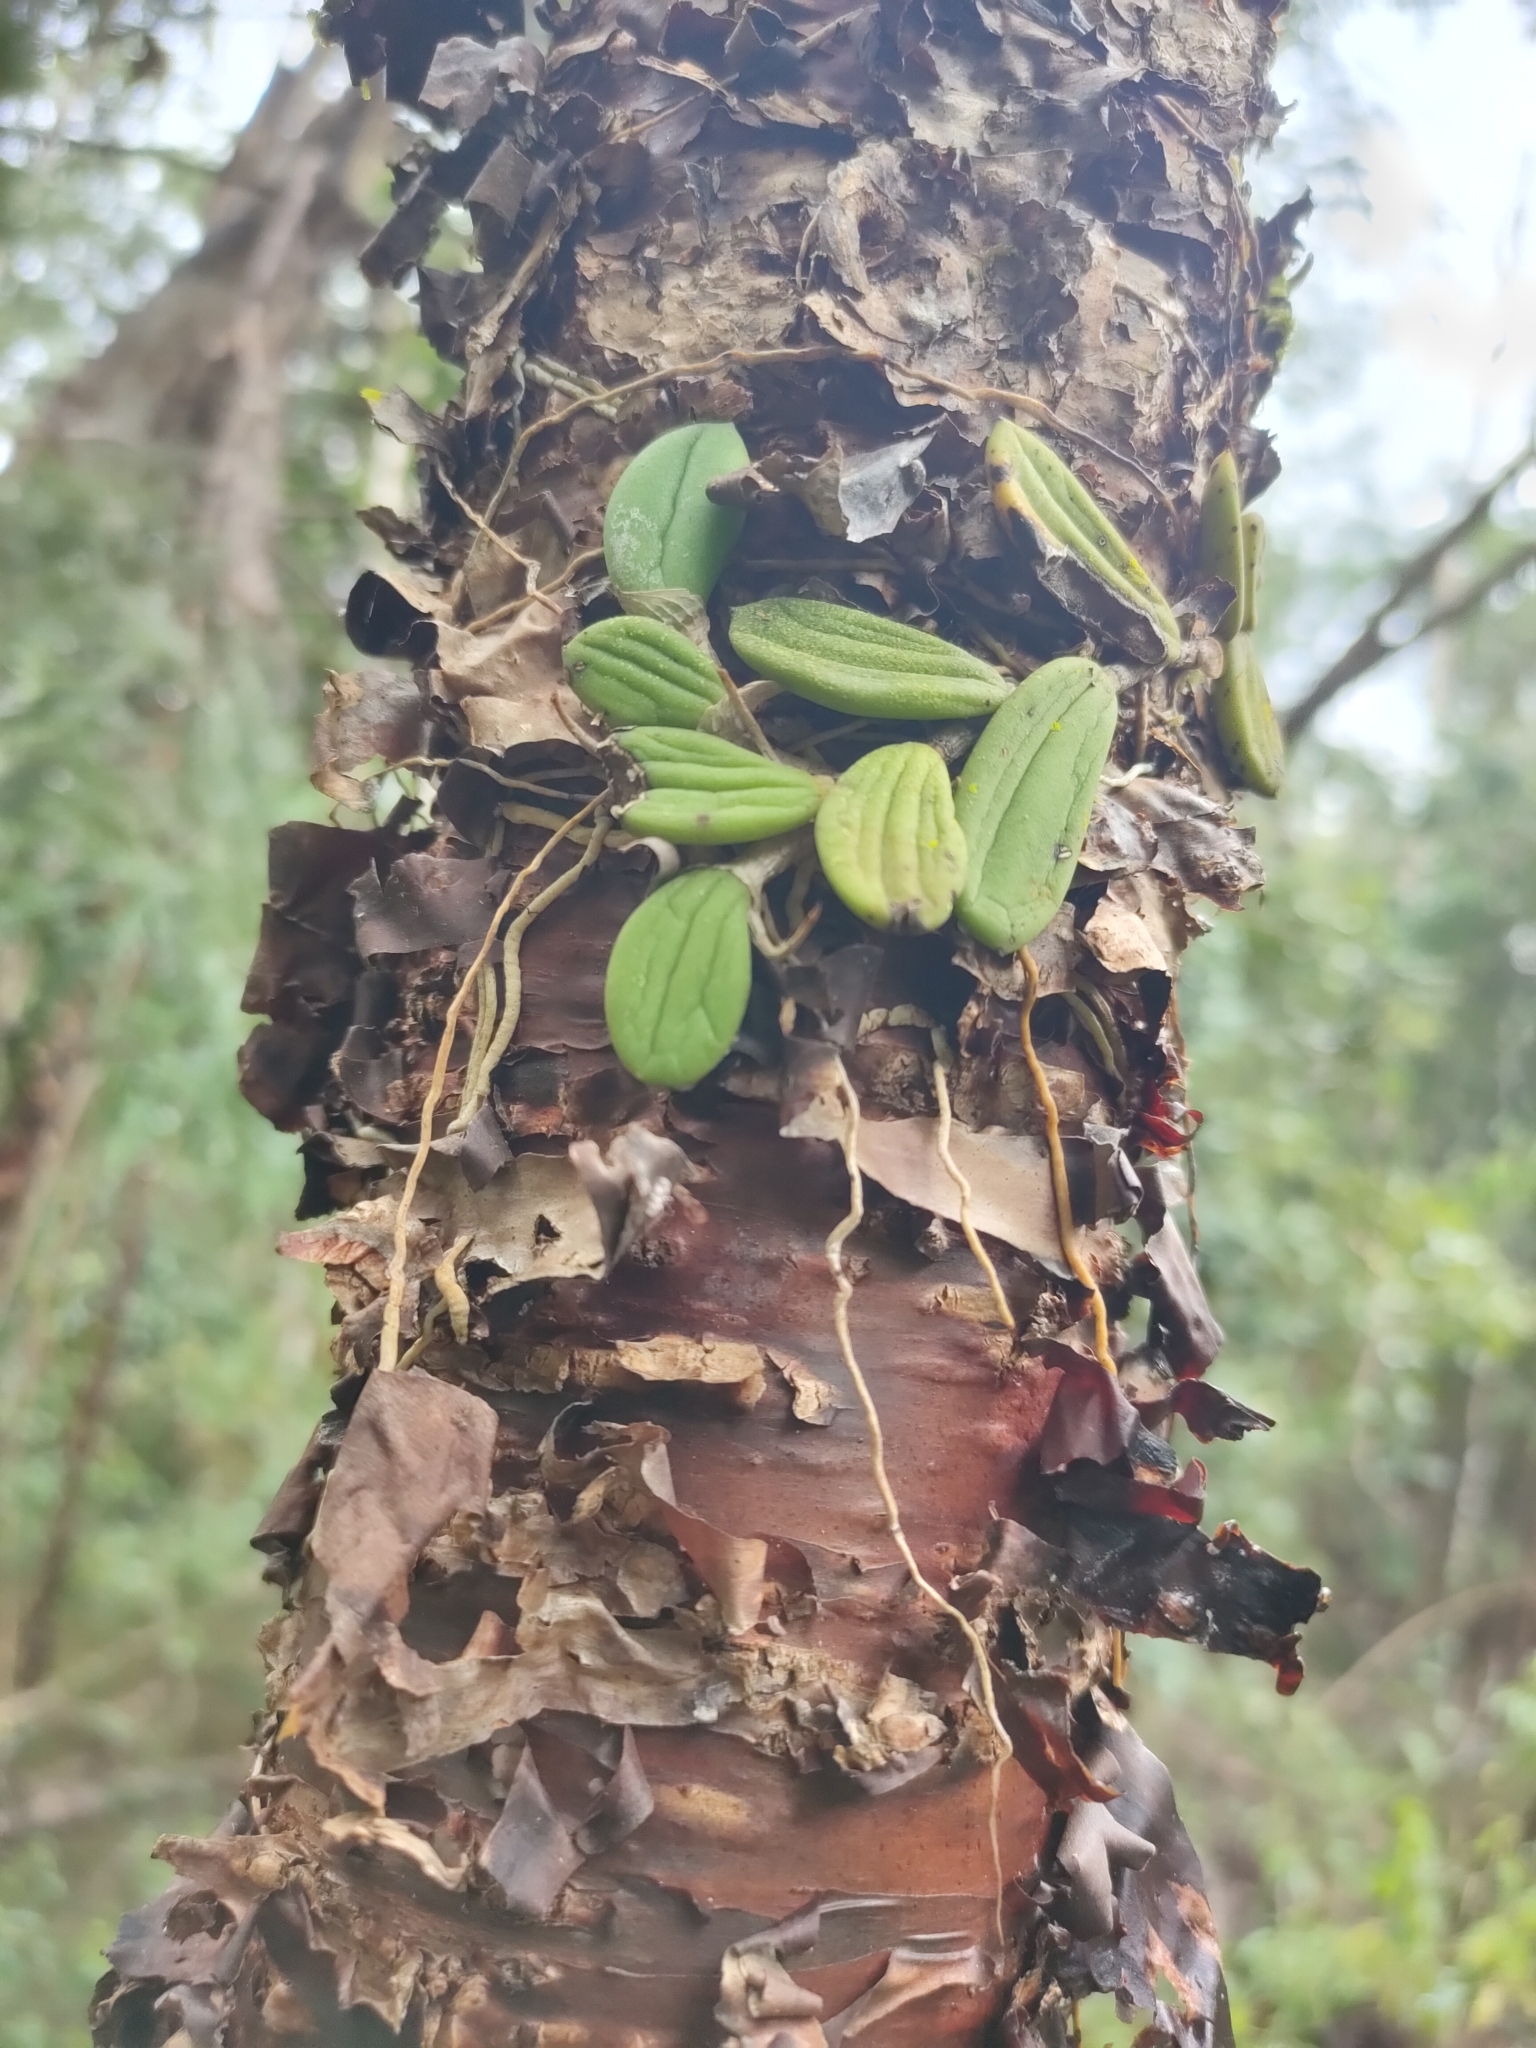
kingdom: Plantae
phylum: Tracheophyta
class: Liliopsida
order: Asparagales
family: Orchidaceae
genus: Dendrobium
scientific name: Dendrobium linguiforme
